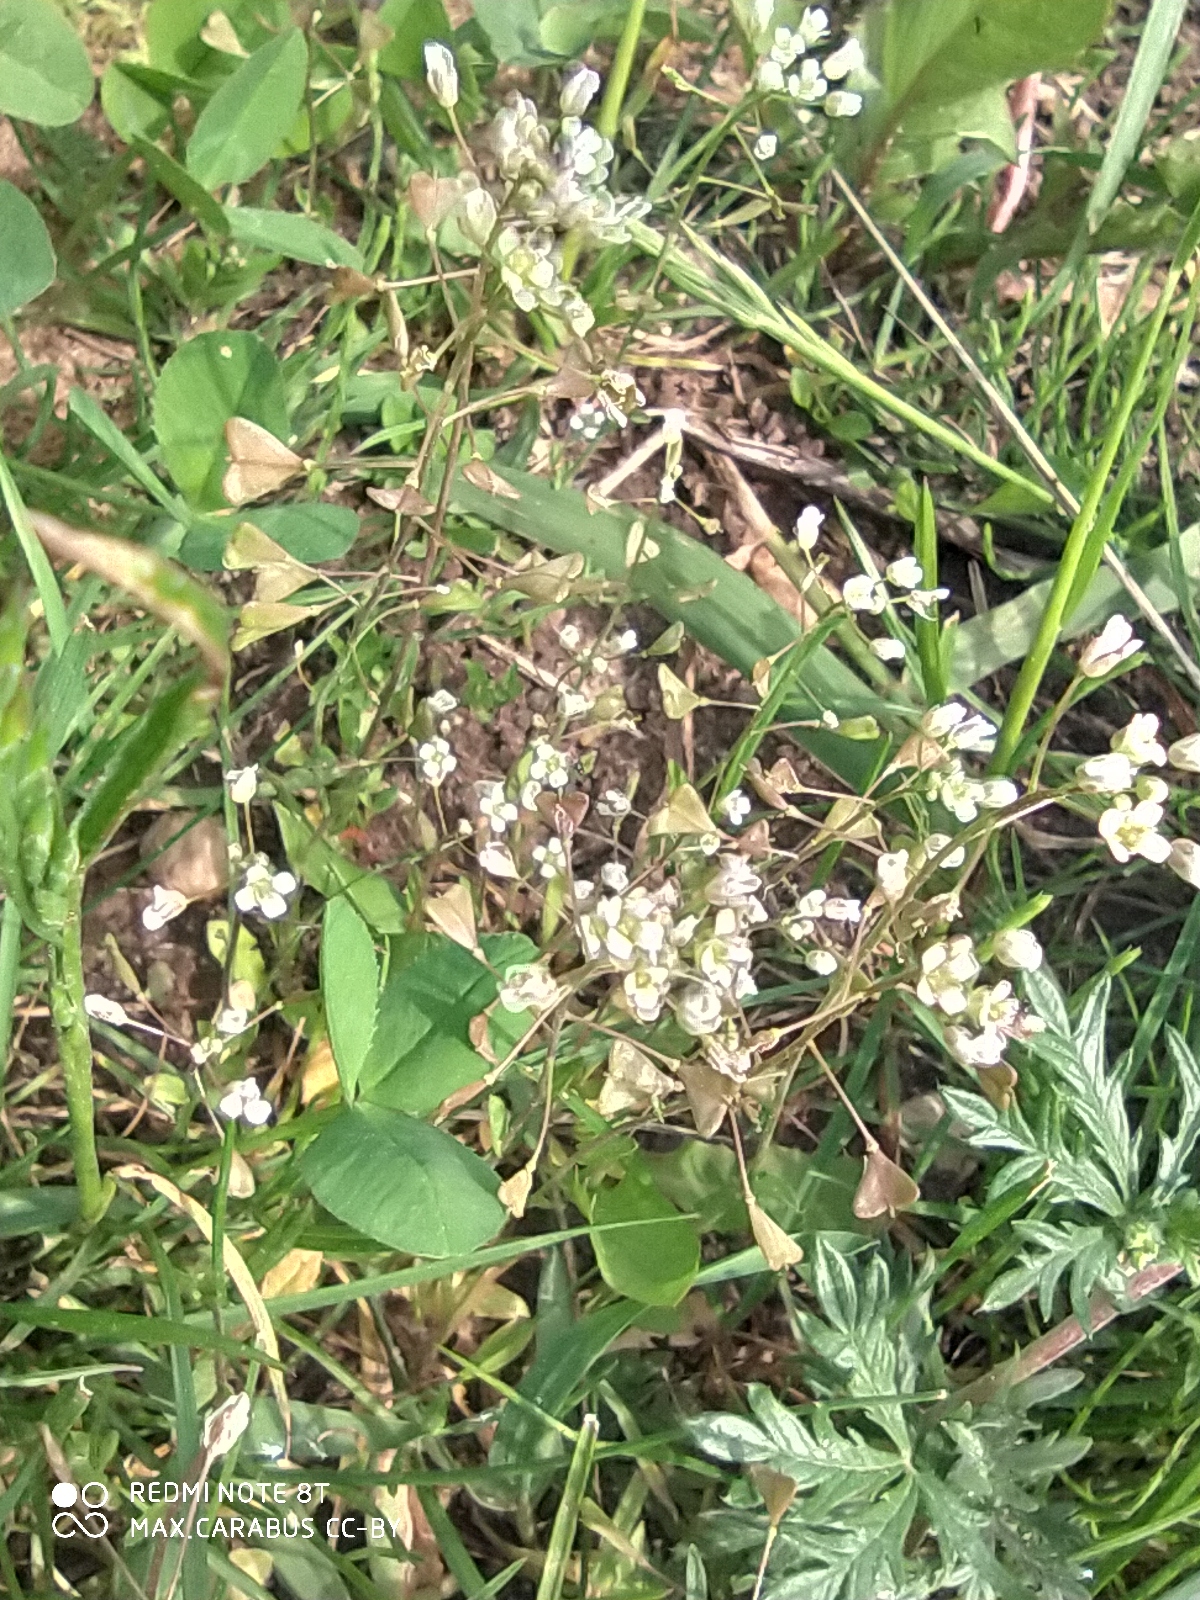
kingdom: Plantae
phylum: Tracheophyta
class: Magnoliopsida
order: Brassicales
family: Brassicaceae
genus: Capsella
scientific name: Capsella bursa-pastoris
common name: Shepherd's purse
